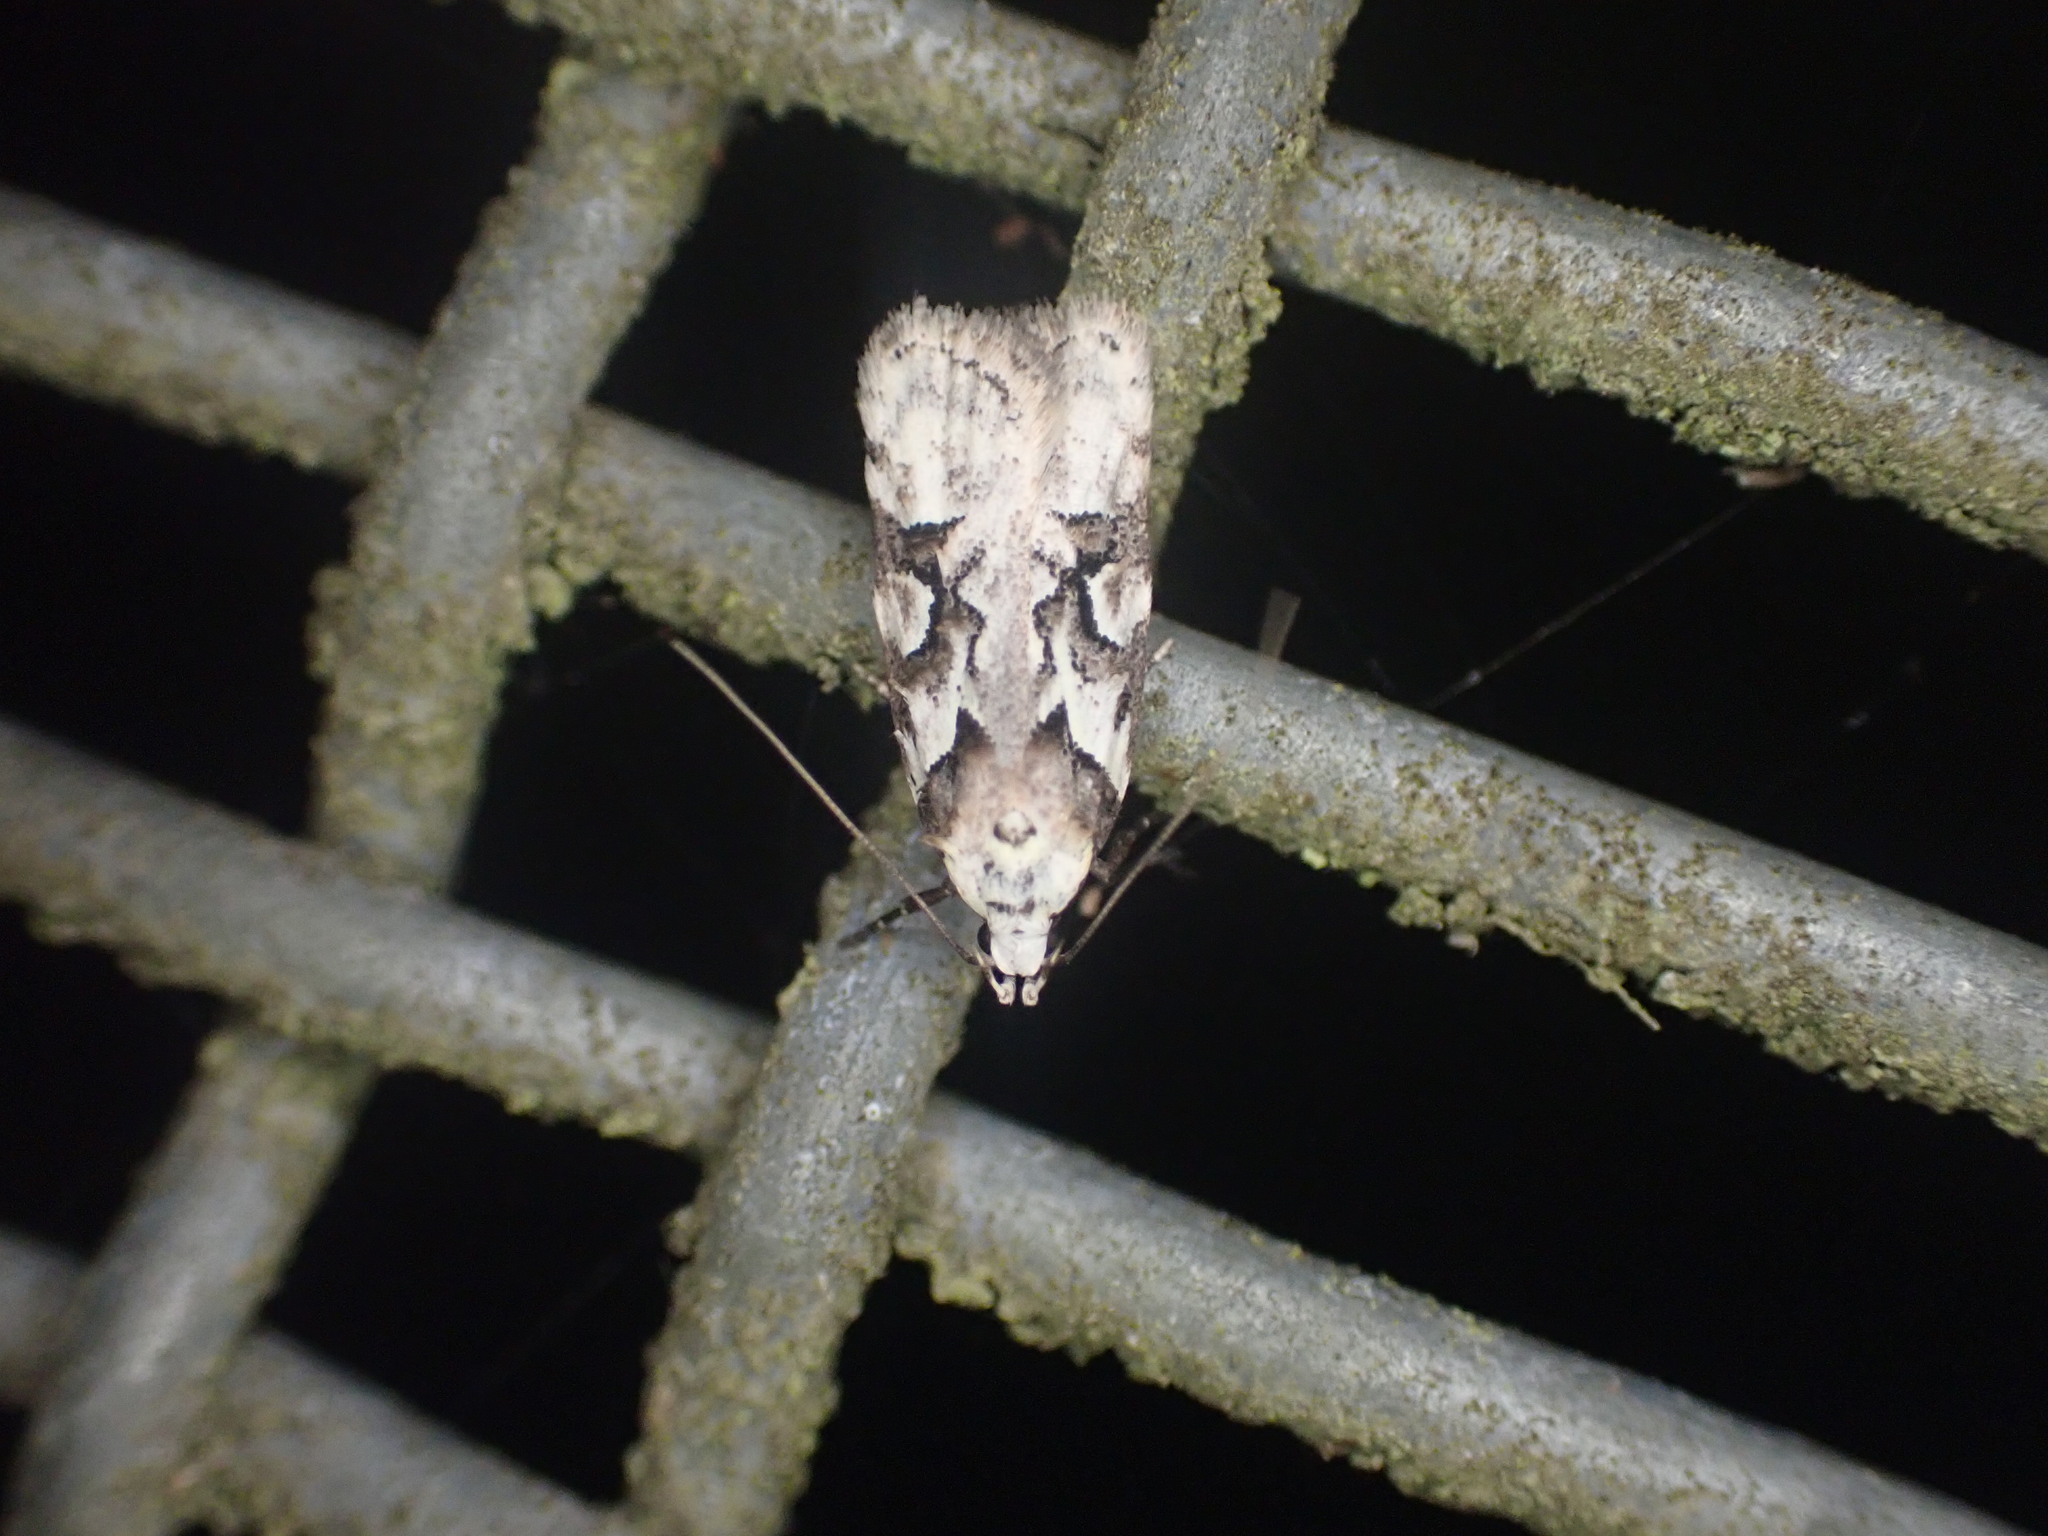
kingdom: Animalia
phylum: Arthropoda
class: Insecta
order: Lepidoptera
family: Oecophoridae
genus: Izatha
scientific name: Izatha epiphanes
